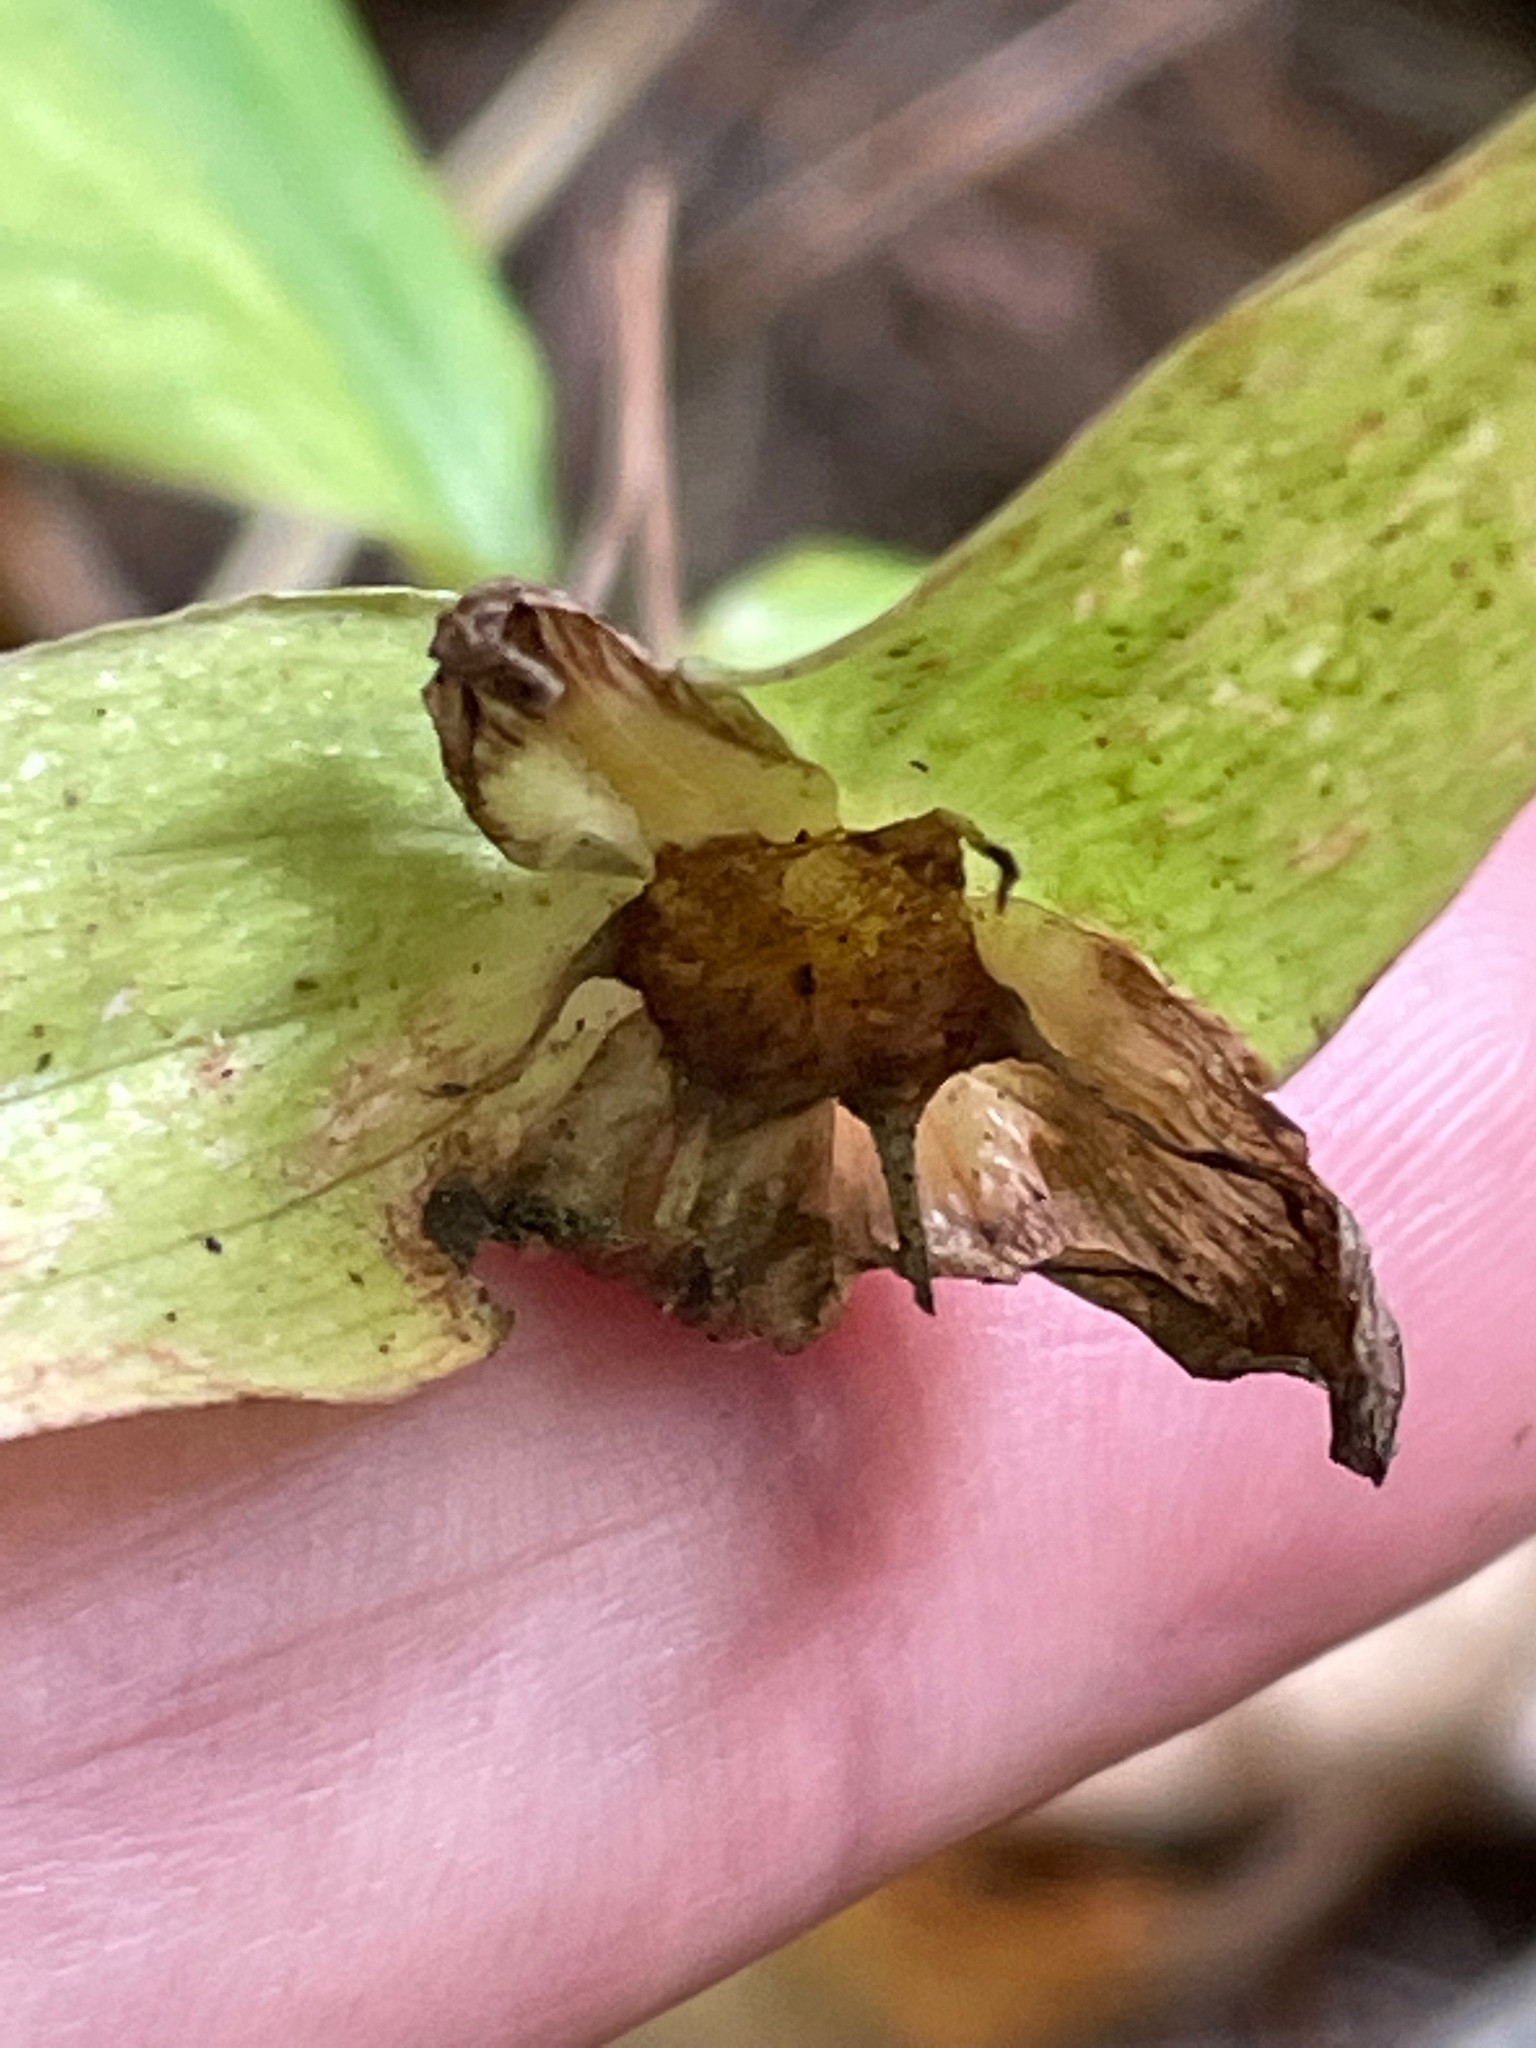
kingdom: Plantae
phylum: Tracheophyta
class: Liliopsida
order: Liliales
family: Melanthiaceae
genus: Trillium
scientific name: Trillium grandiflorum
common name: Great white trillium
